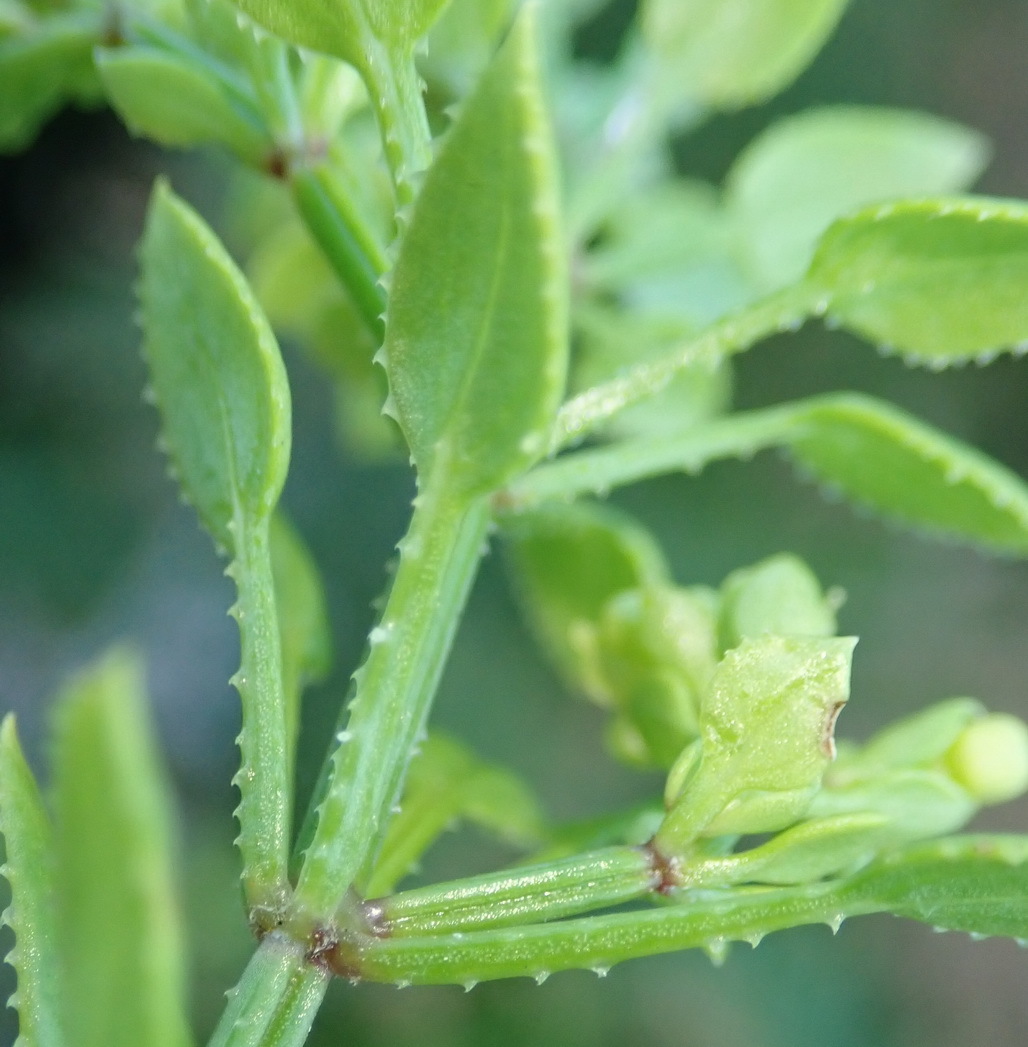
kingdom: Plantae
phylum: Tracheophyta
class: Magnoliopsida
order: Gentianales
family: Rubiaceae
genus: Rubia
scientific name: Rubia petiolaris
